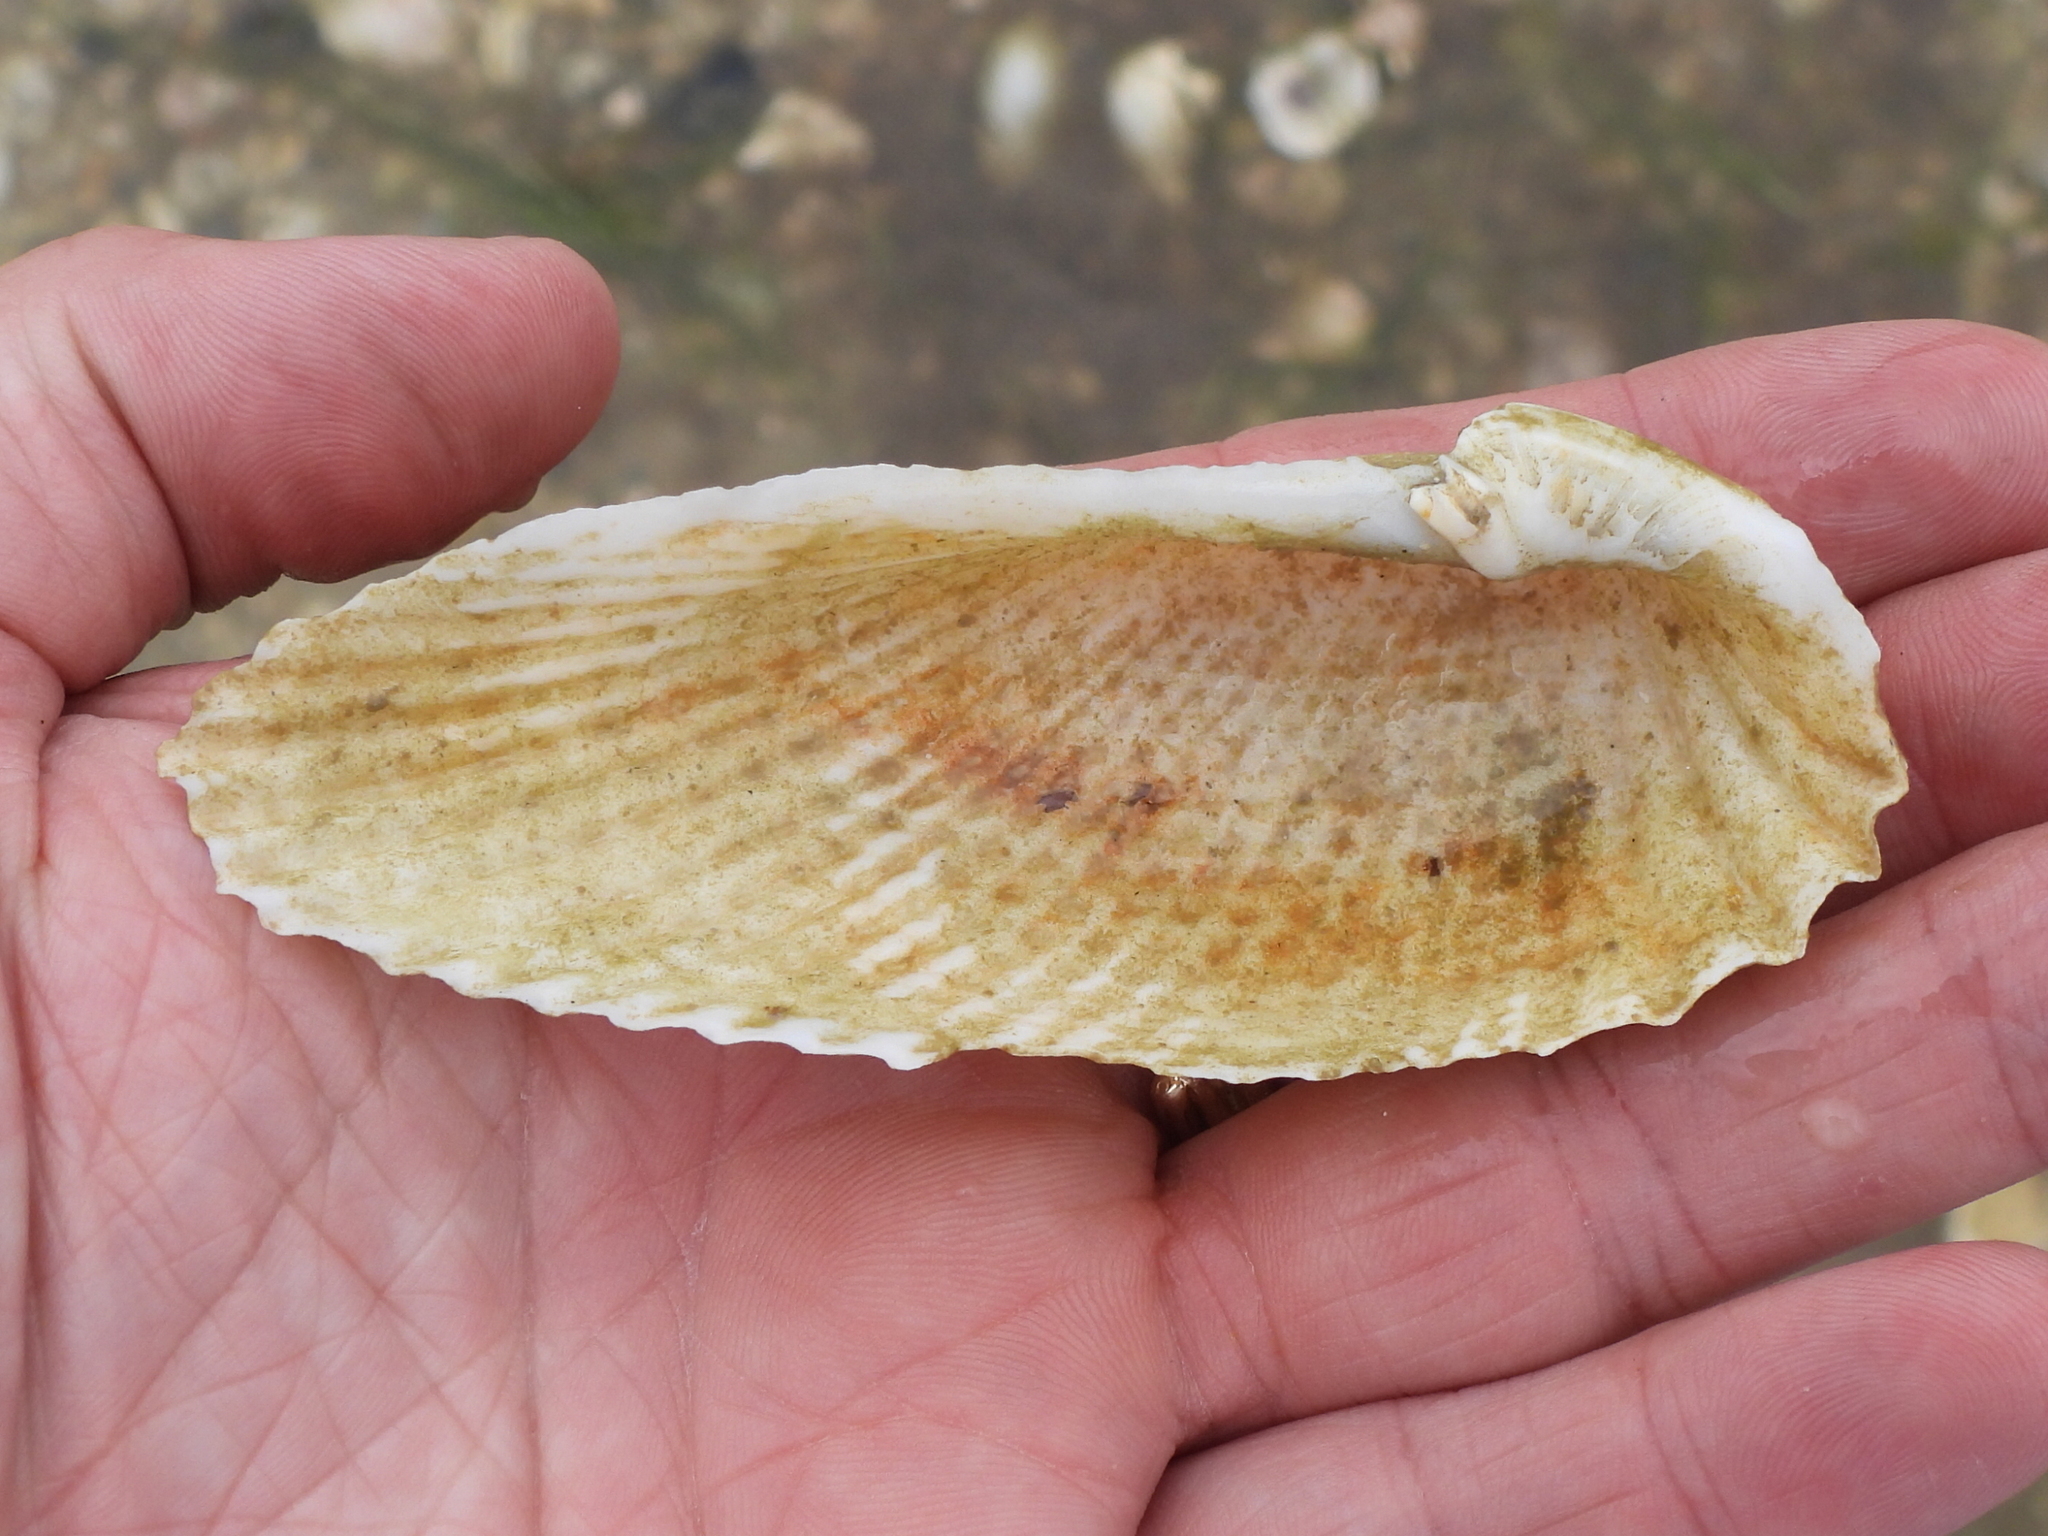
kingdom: Animalia
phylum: Mollusca
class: Bivalvia
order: Myida
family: Pholadidae
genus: Cyrtopleura
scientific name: Cyrtopleura costata
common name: Angel wing
